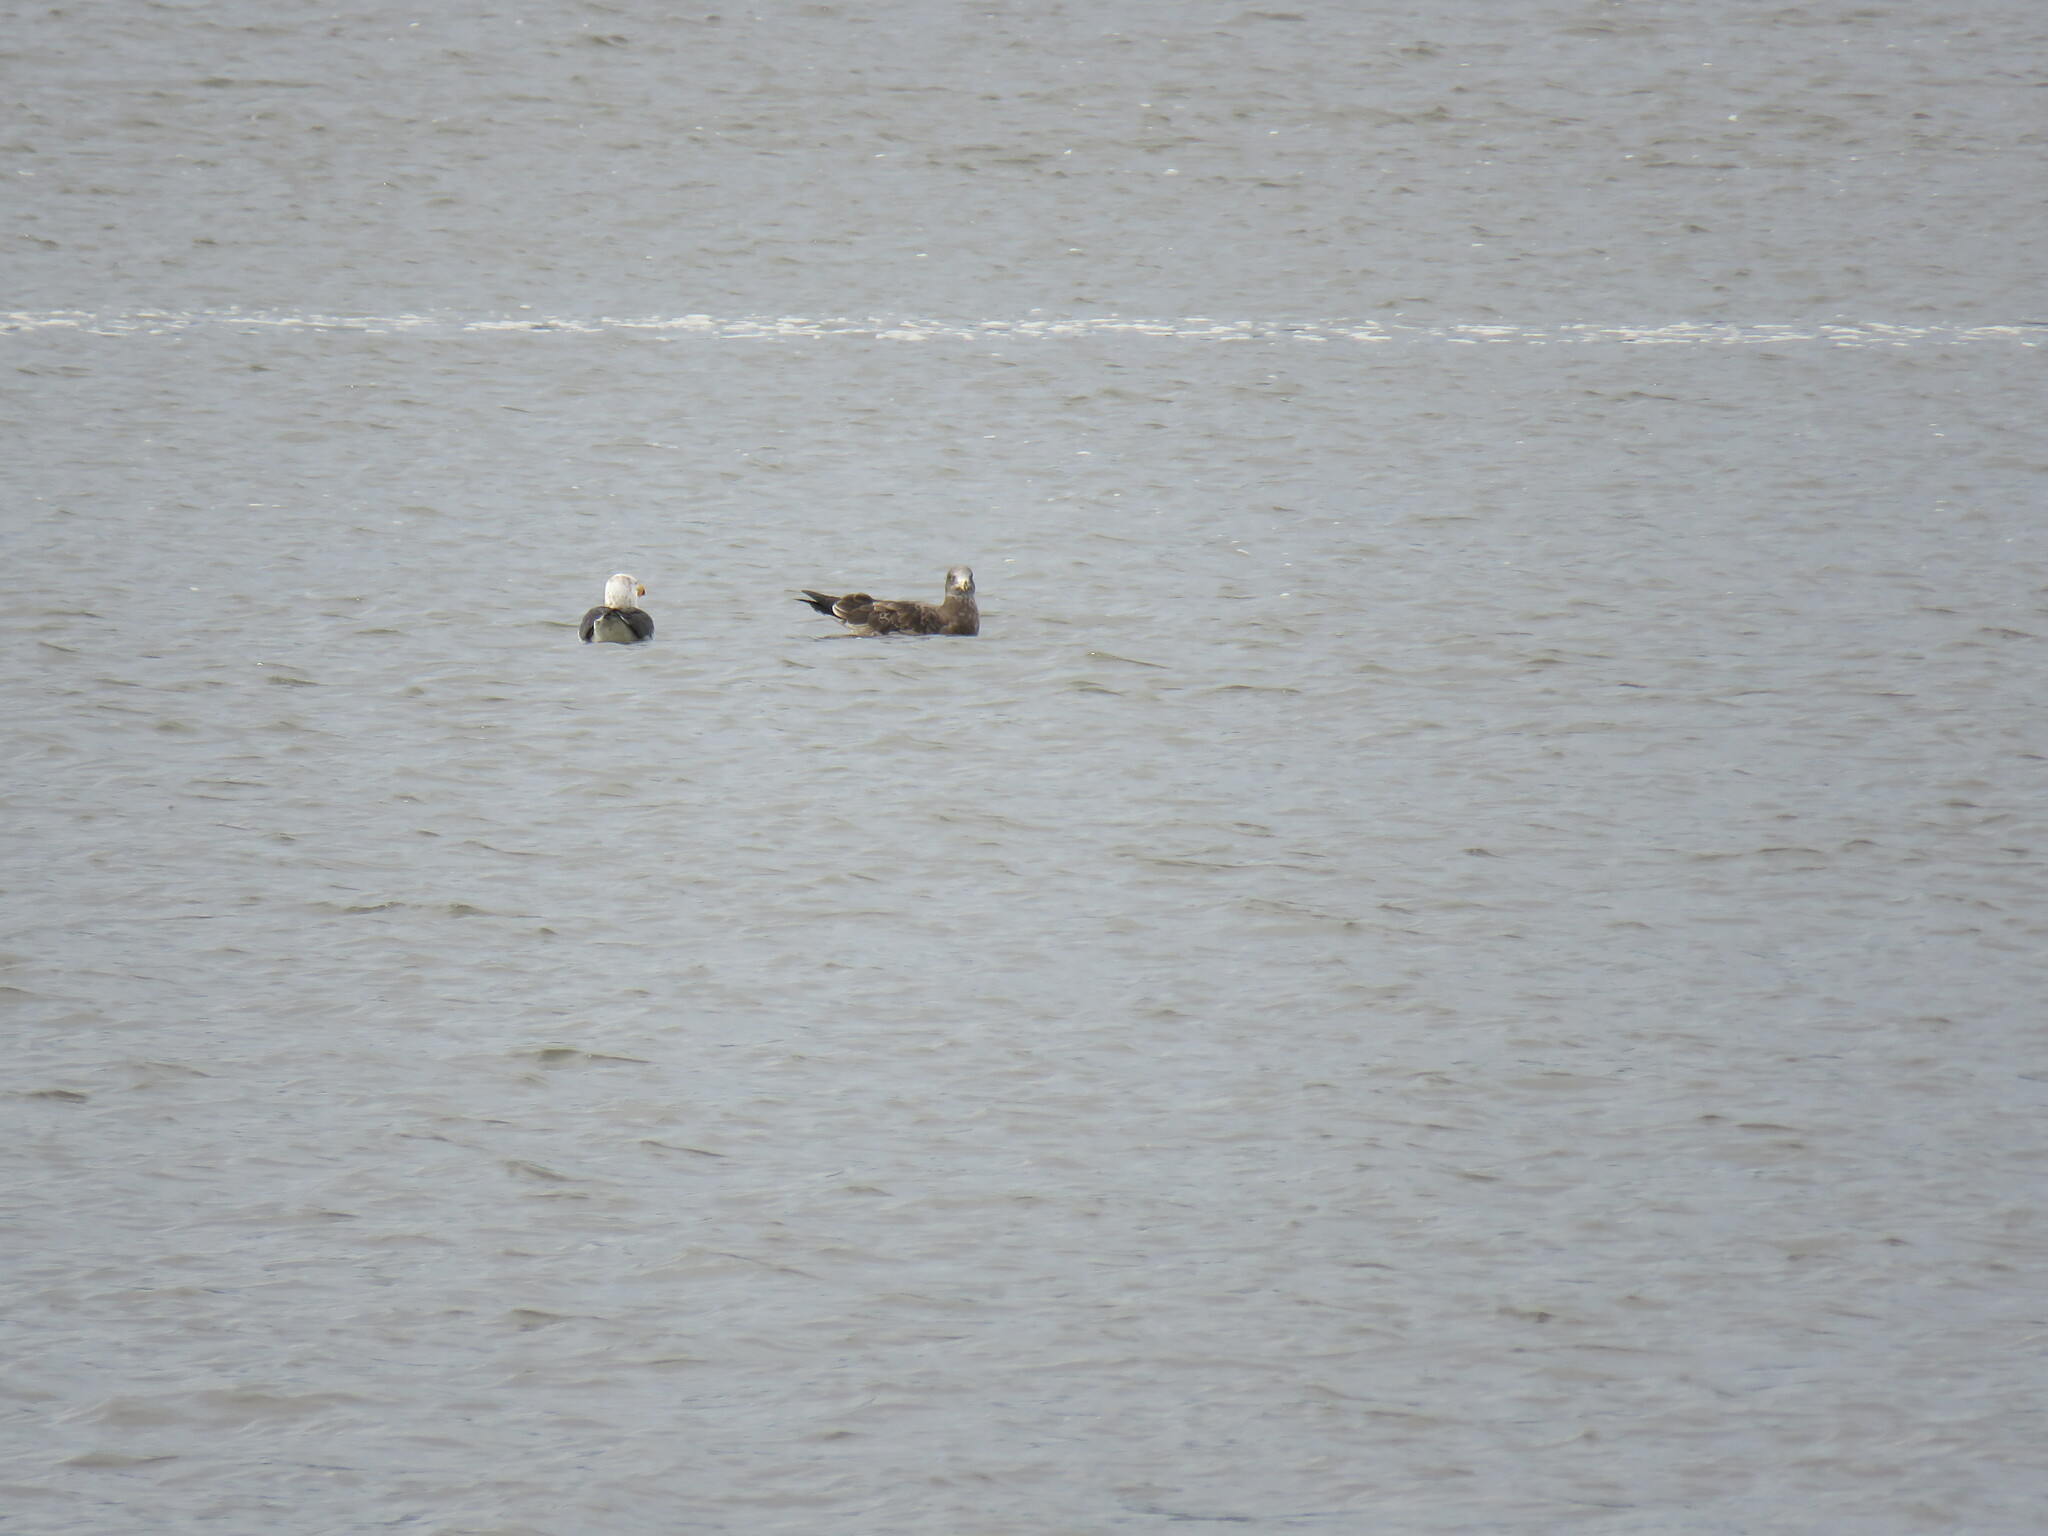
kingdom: Animalia
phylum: Chordata
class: Aves
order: Charadriiformes
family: Laridae
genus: Larus
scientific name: Larus pacificus
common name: Pacific gull
